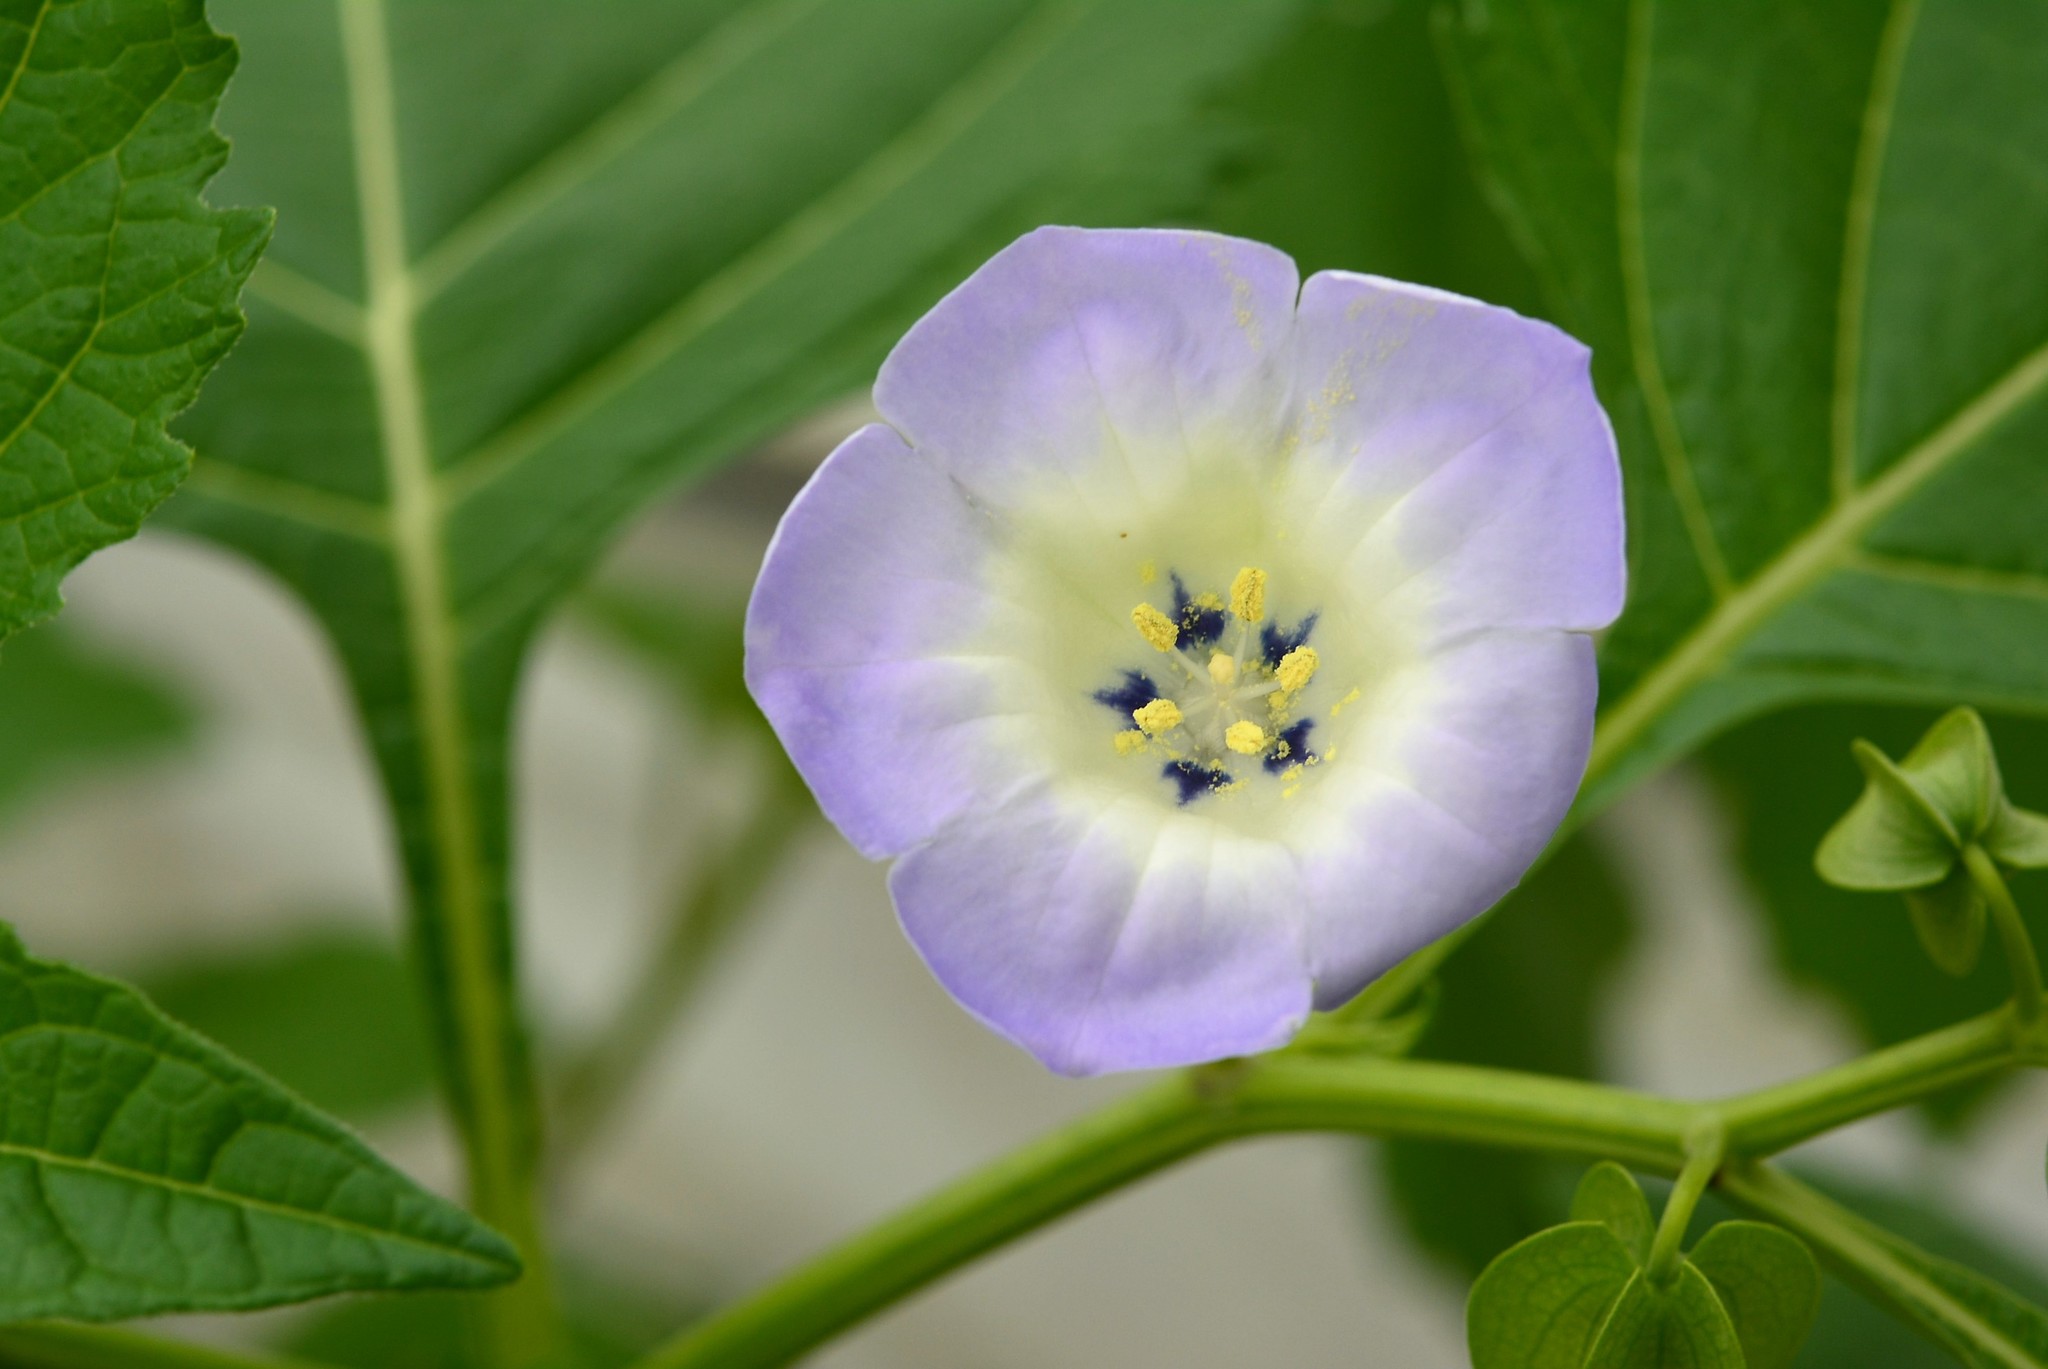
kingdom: Plantae
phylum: Tracheophyta
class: Magnoliopsida
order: Solanales
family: Solanaceae
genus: Nicandra
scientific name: Nicandra physalodes
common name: Apple-of-peru
